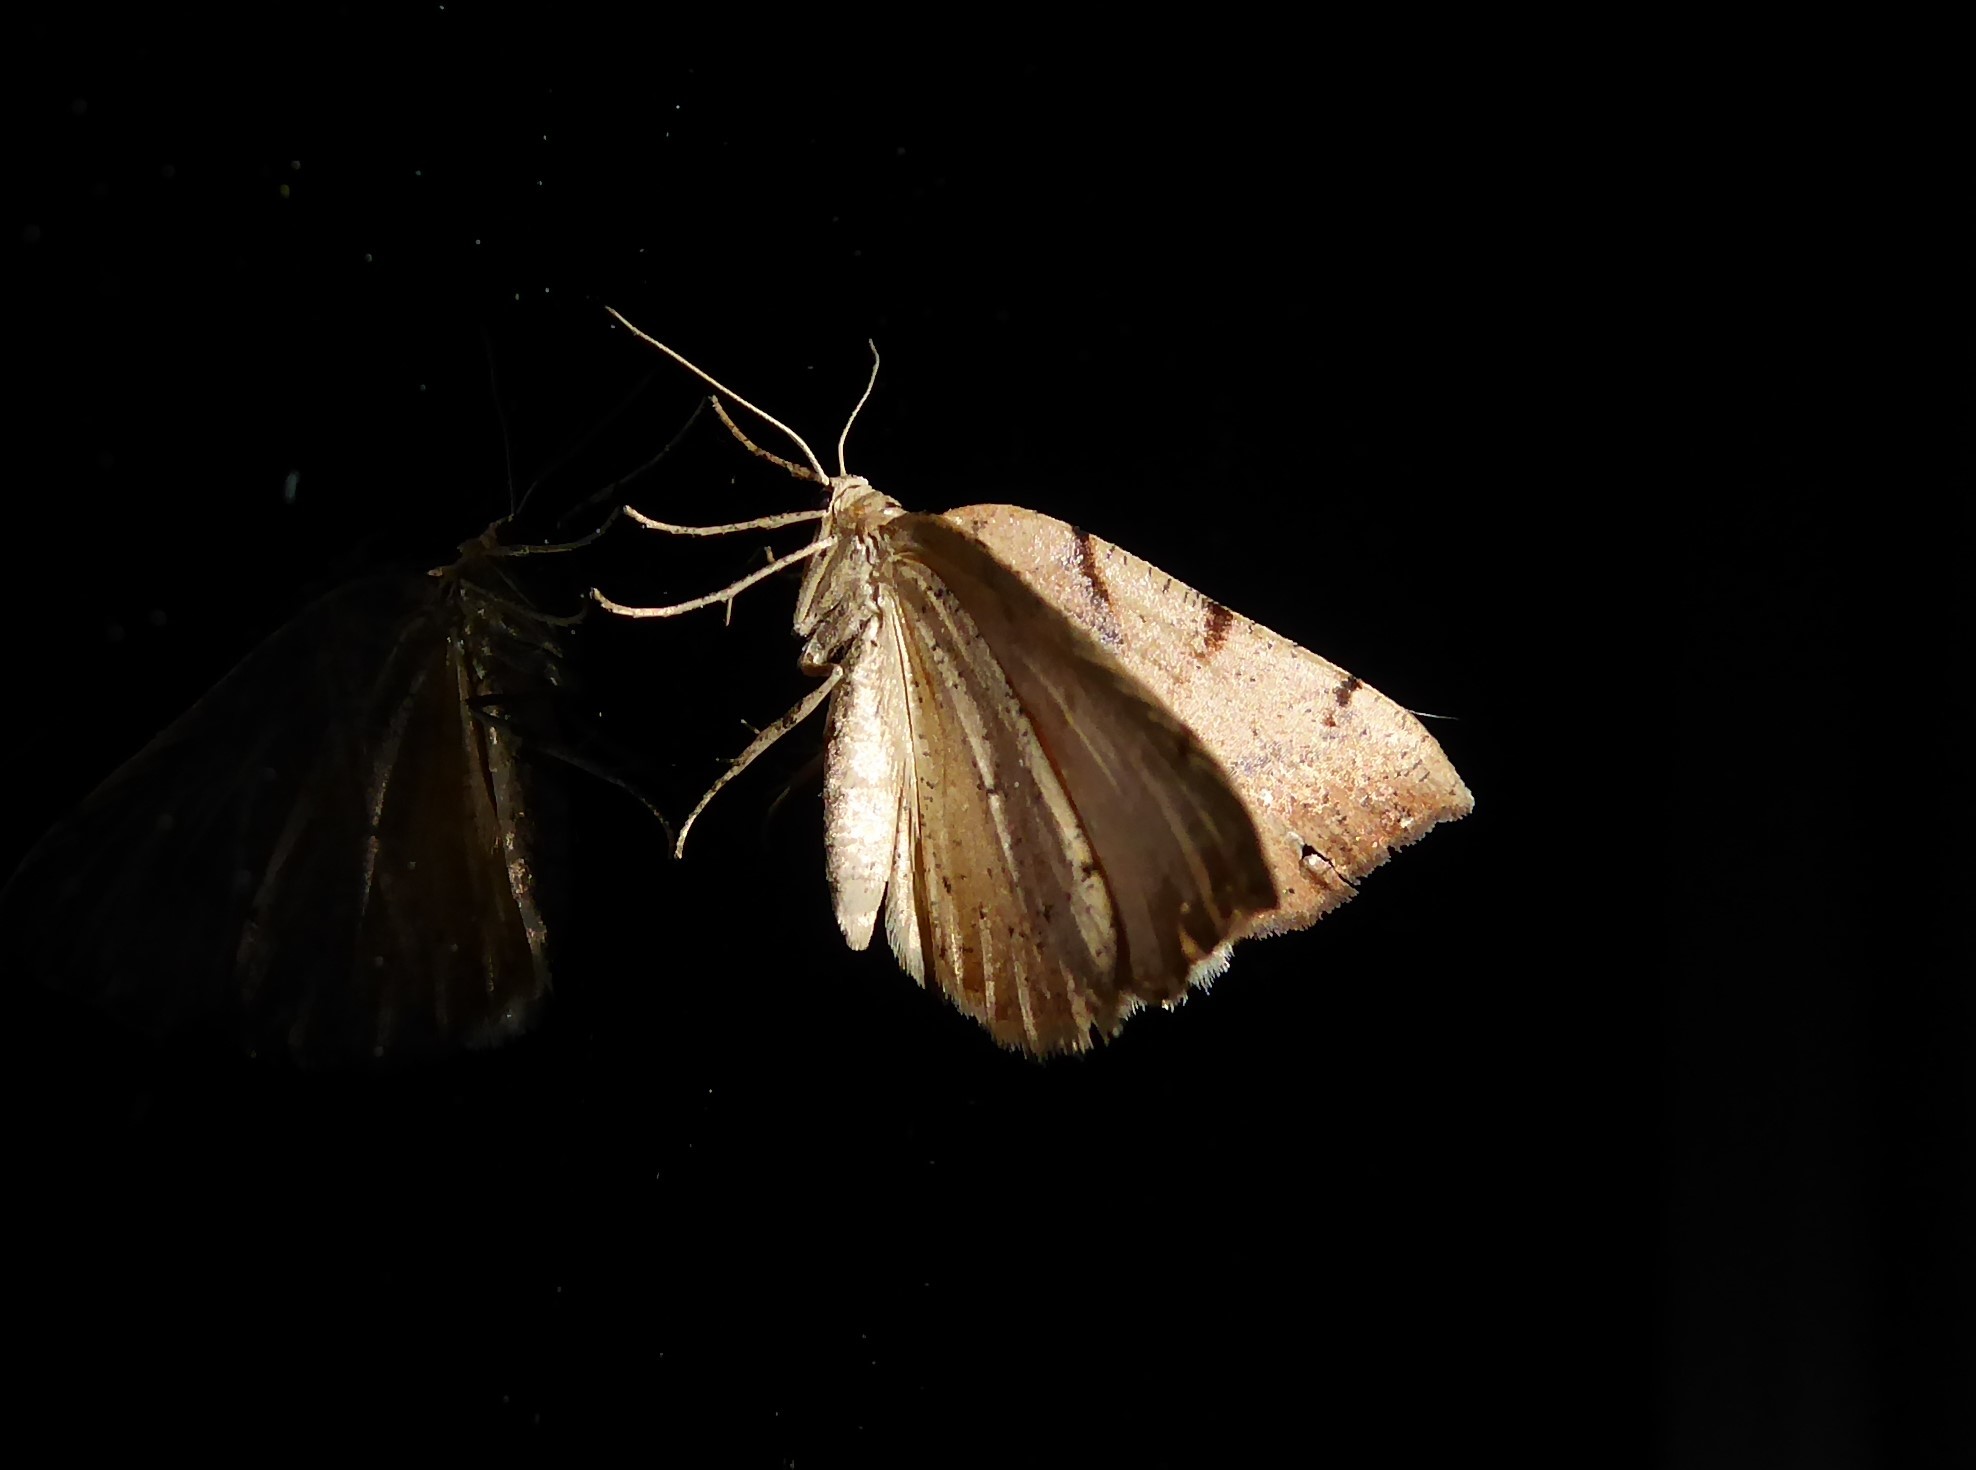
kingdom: Animalia
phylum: Arthropoda
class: Insecta
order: Lepidoptera
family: Geometridae
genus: Sestra
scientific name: Sestra humeraria
